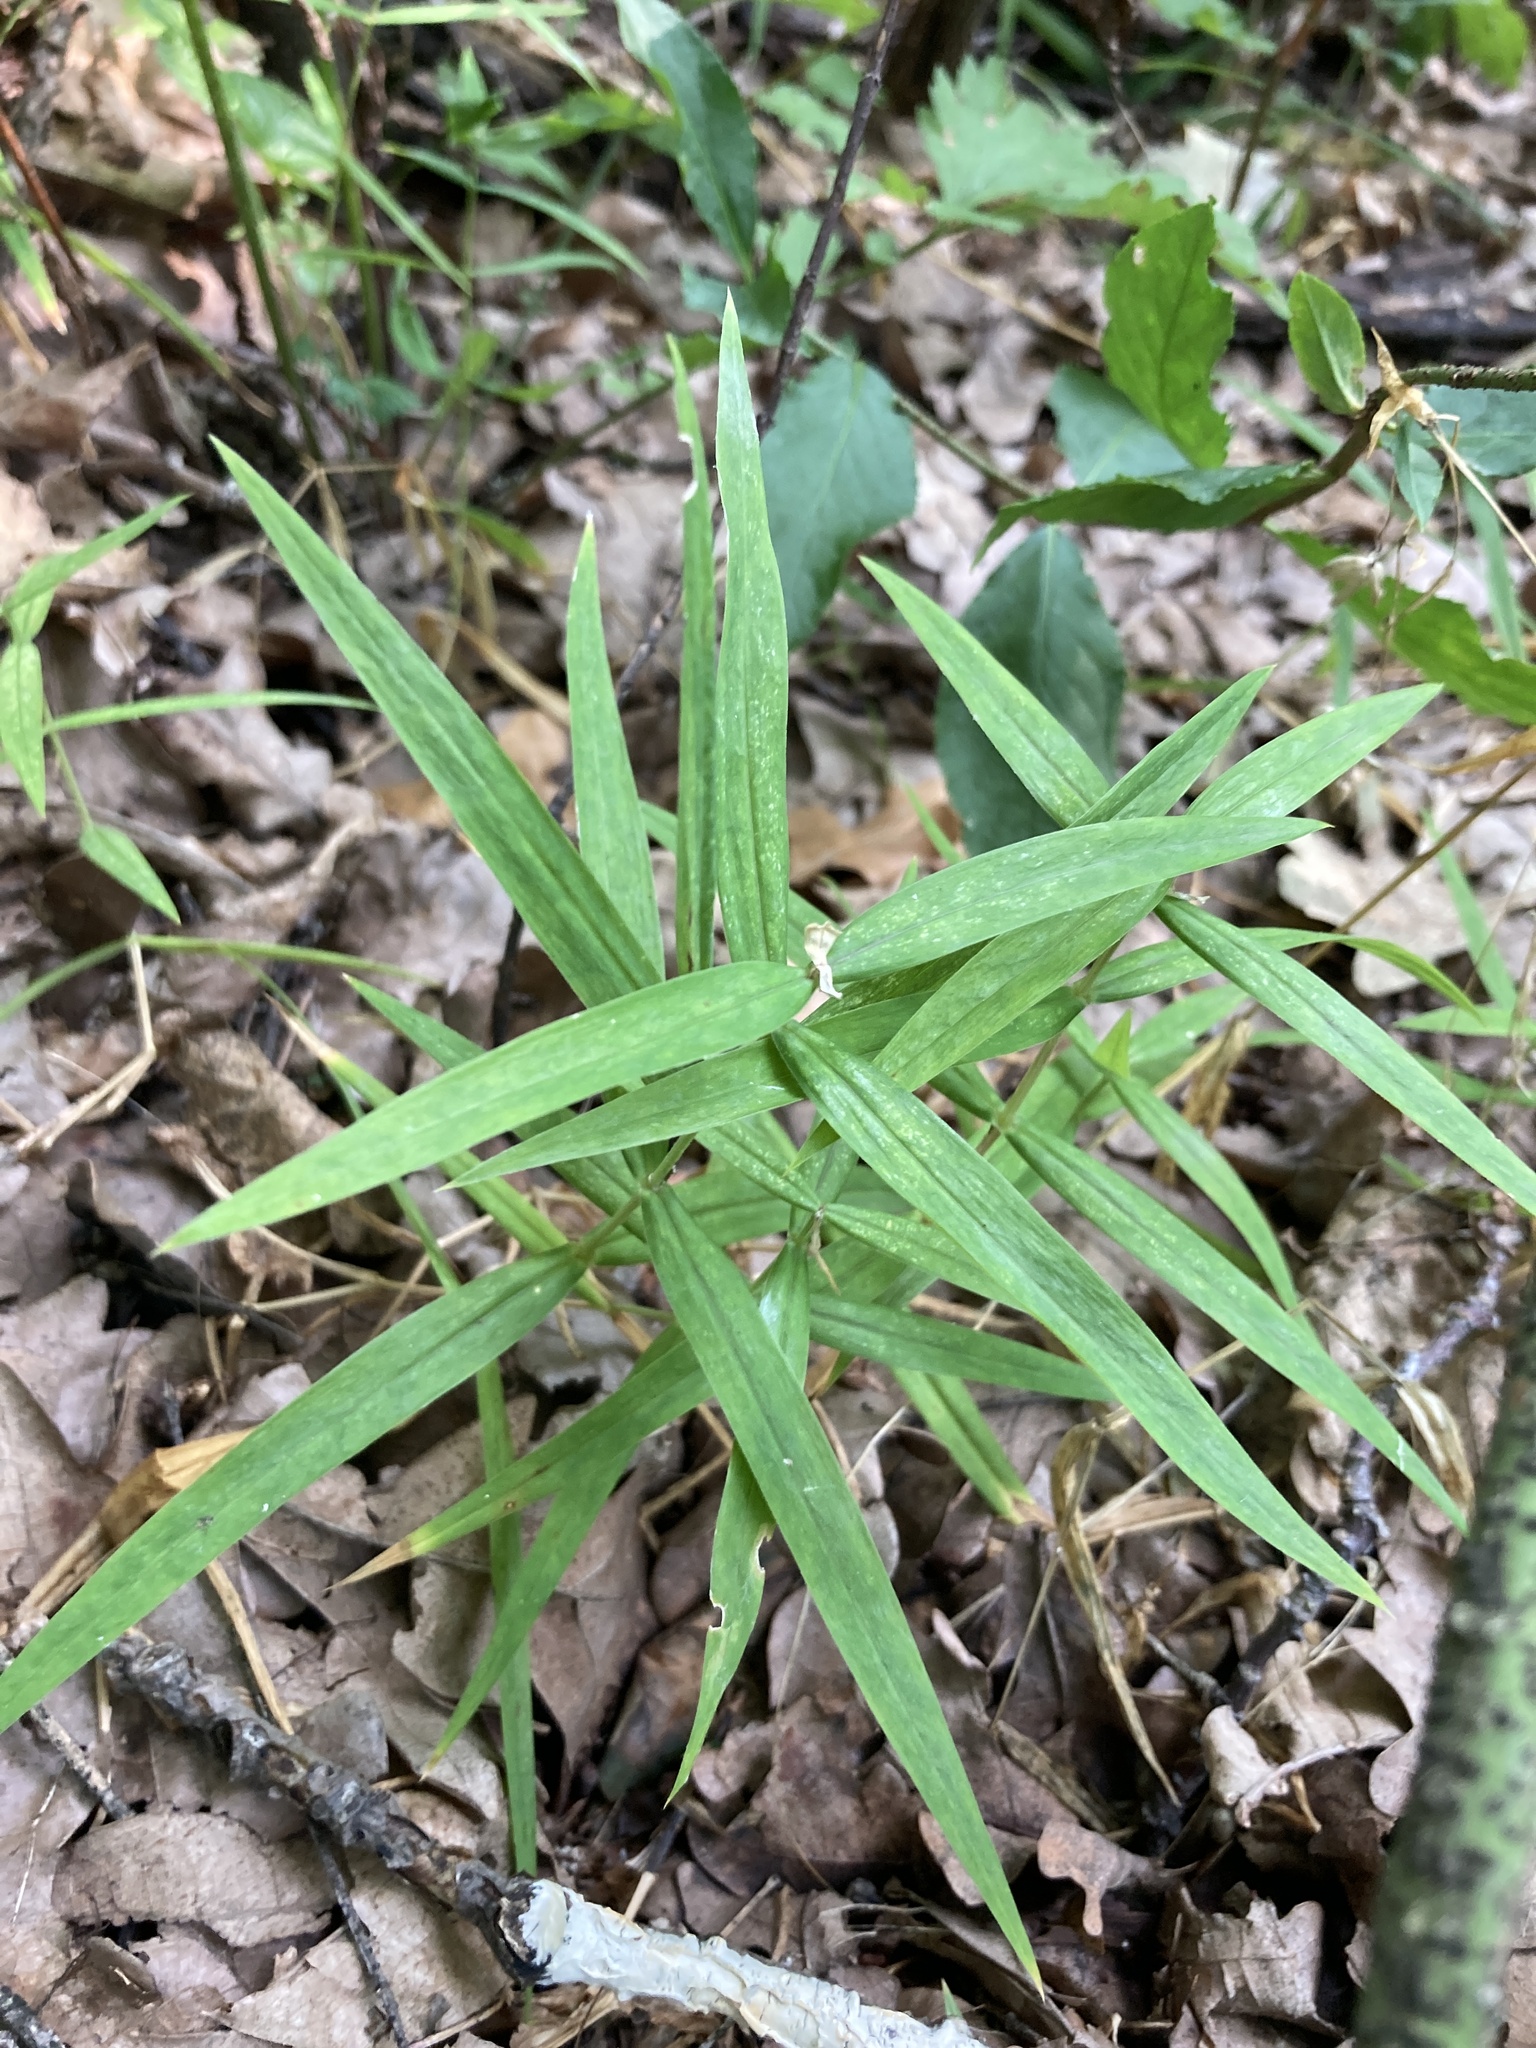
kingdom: Plantae
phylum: Tracheophyta
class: Magnoliopsida
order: Caryophyllales
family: Caryophyllaceae
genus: Rabelera
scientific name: Rabelera holostea
